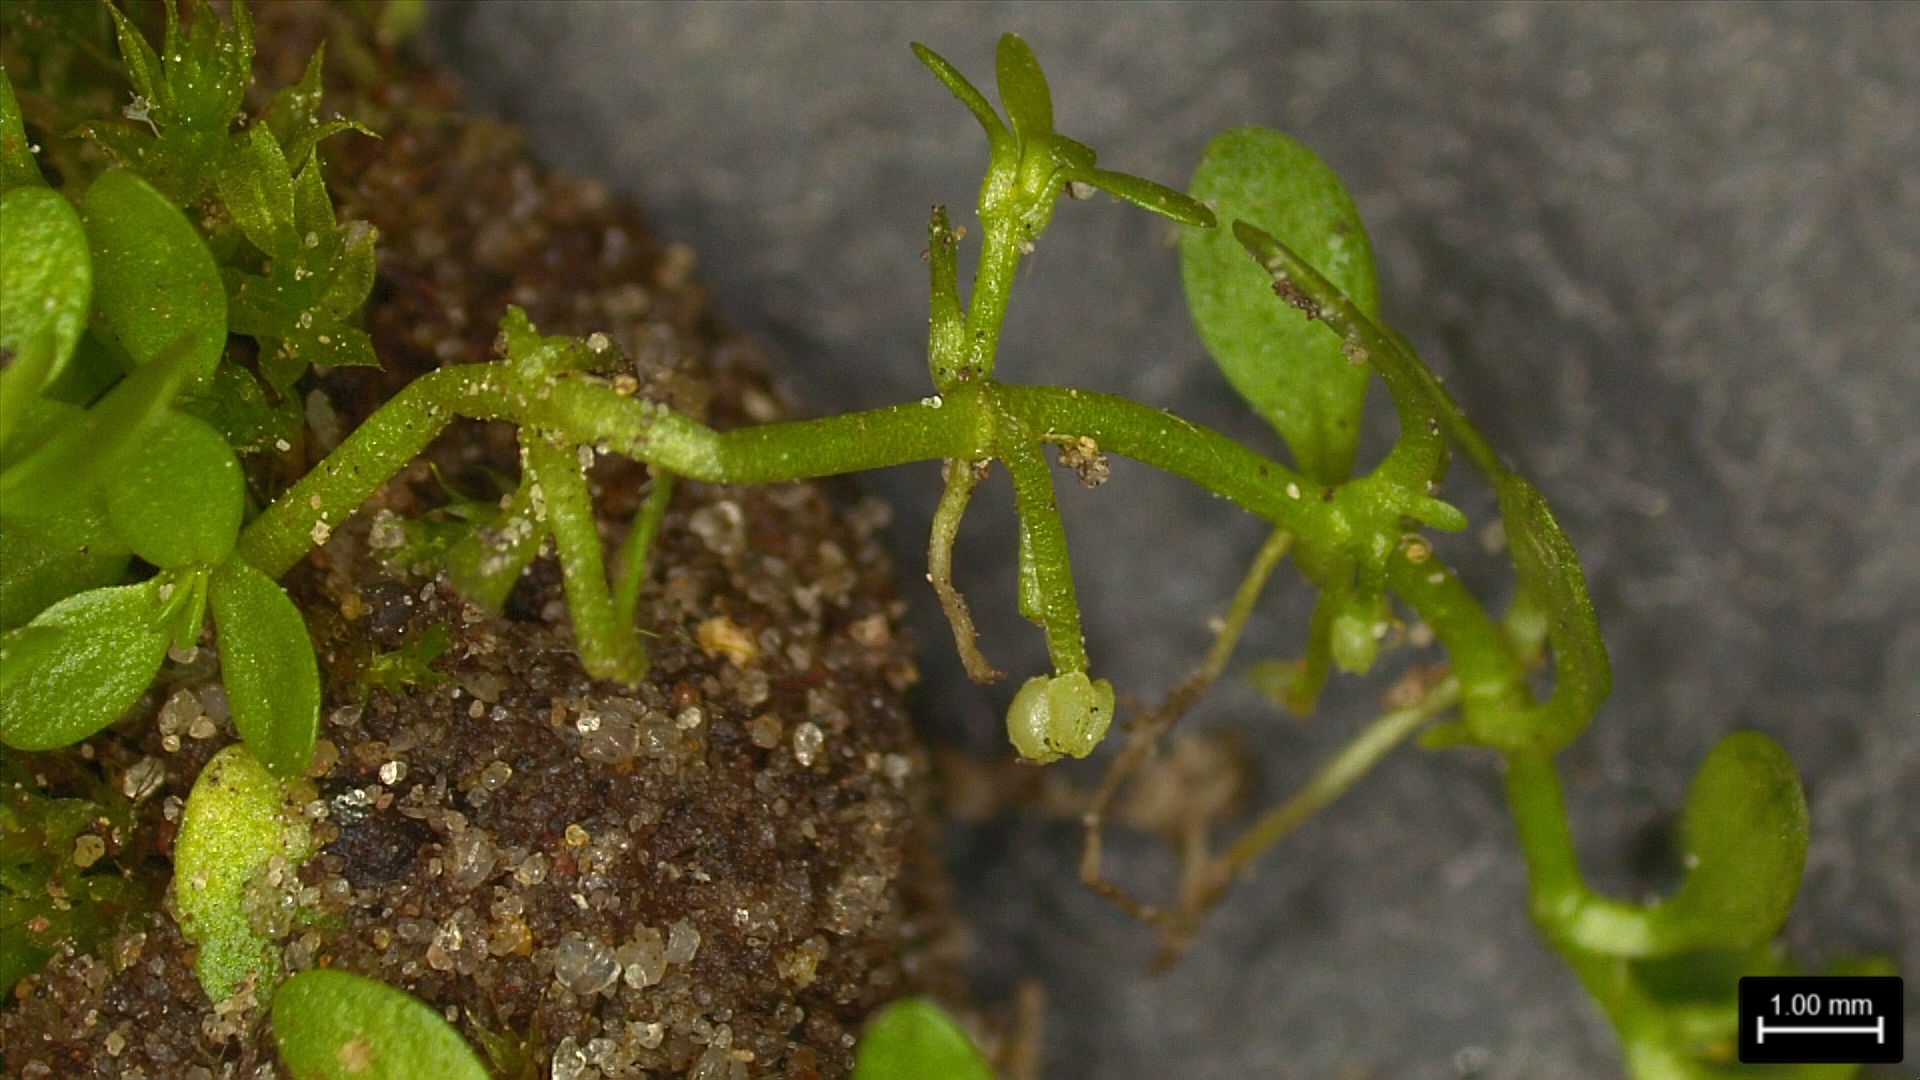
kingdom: Plantae
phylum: Tracheophyta
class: Magnoliopsida
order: Lamiales
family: Plantaginaceae
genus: Callitriche
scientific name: Callitriche pedunculosa
